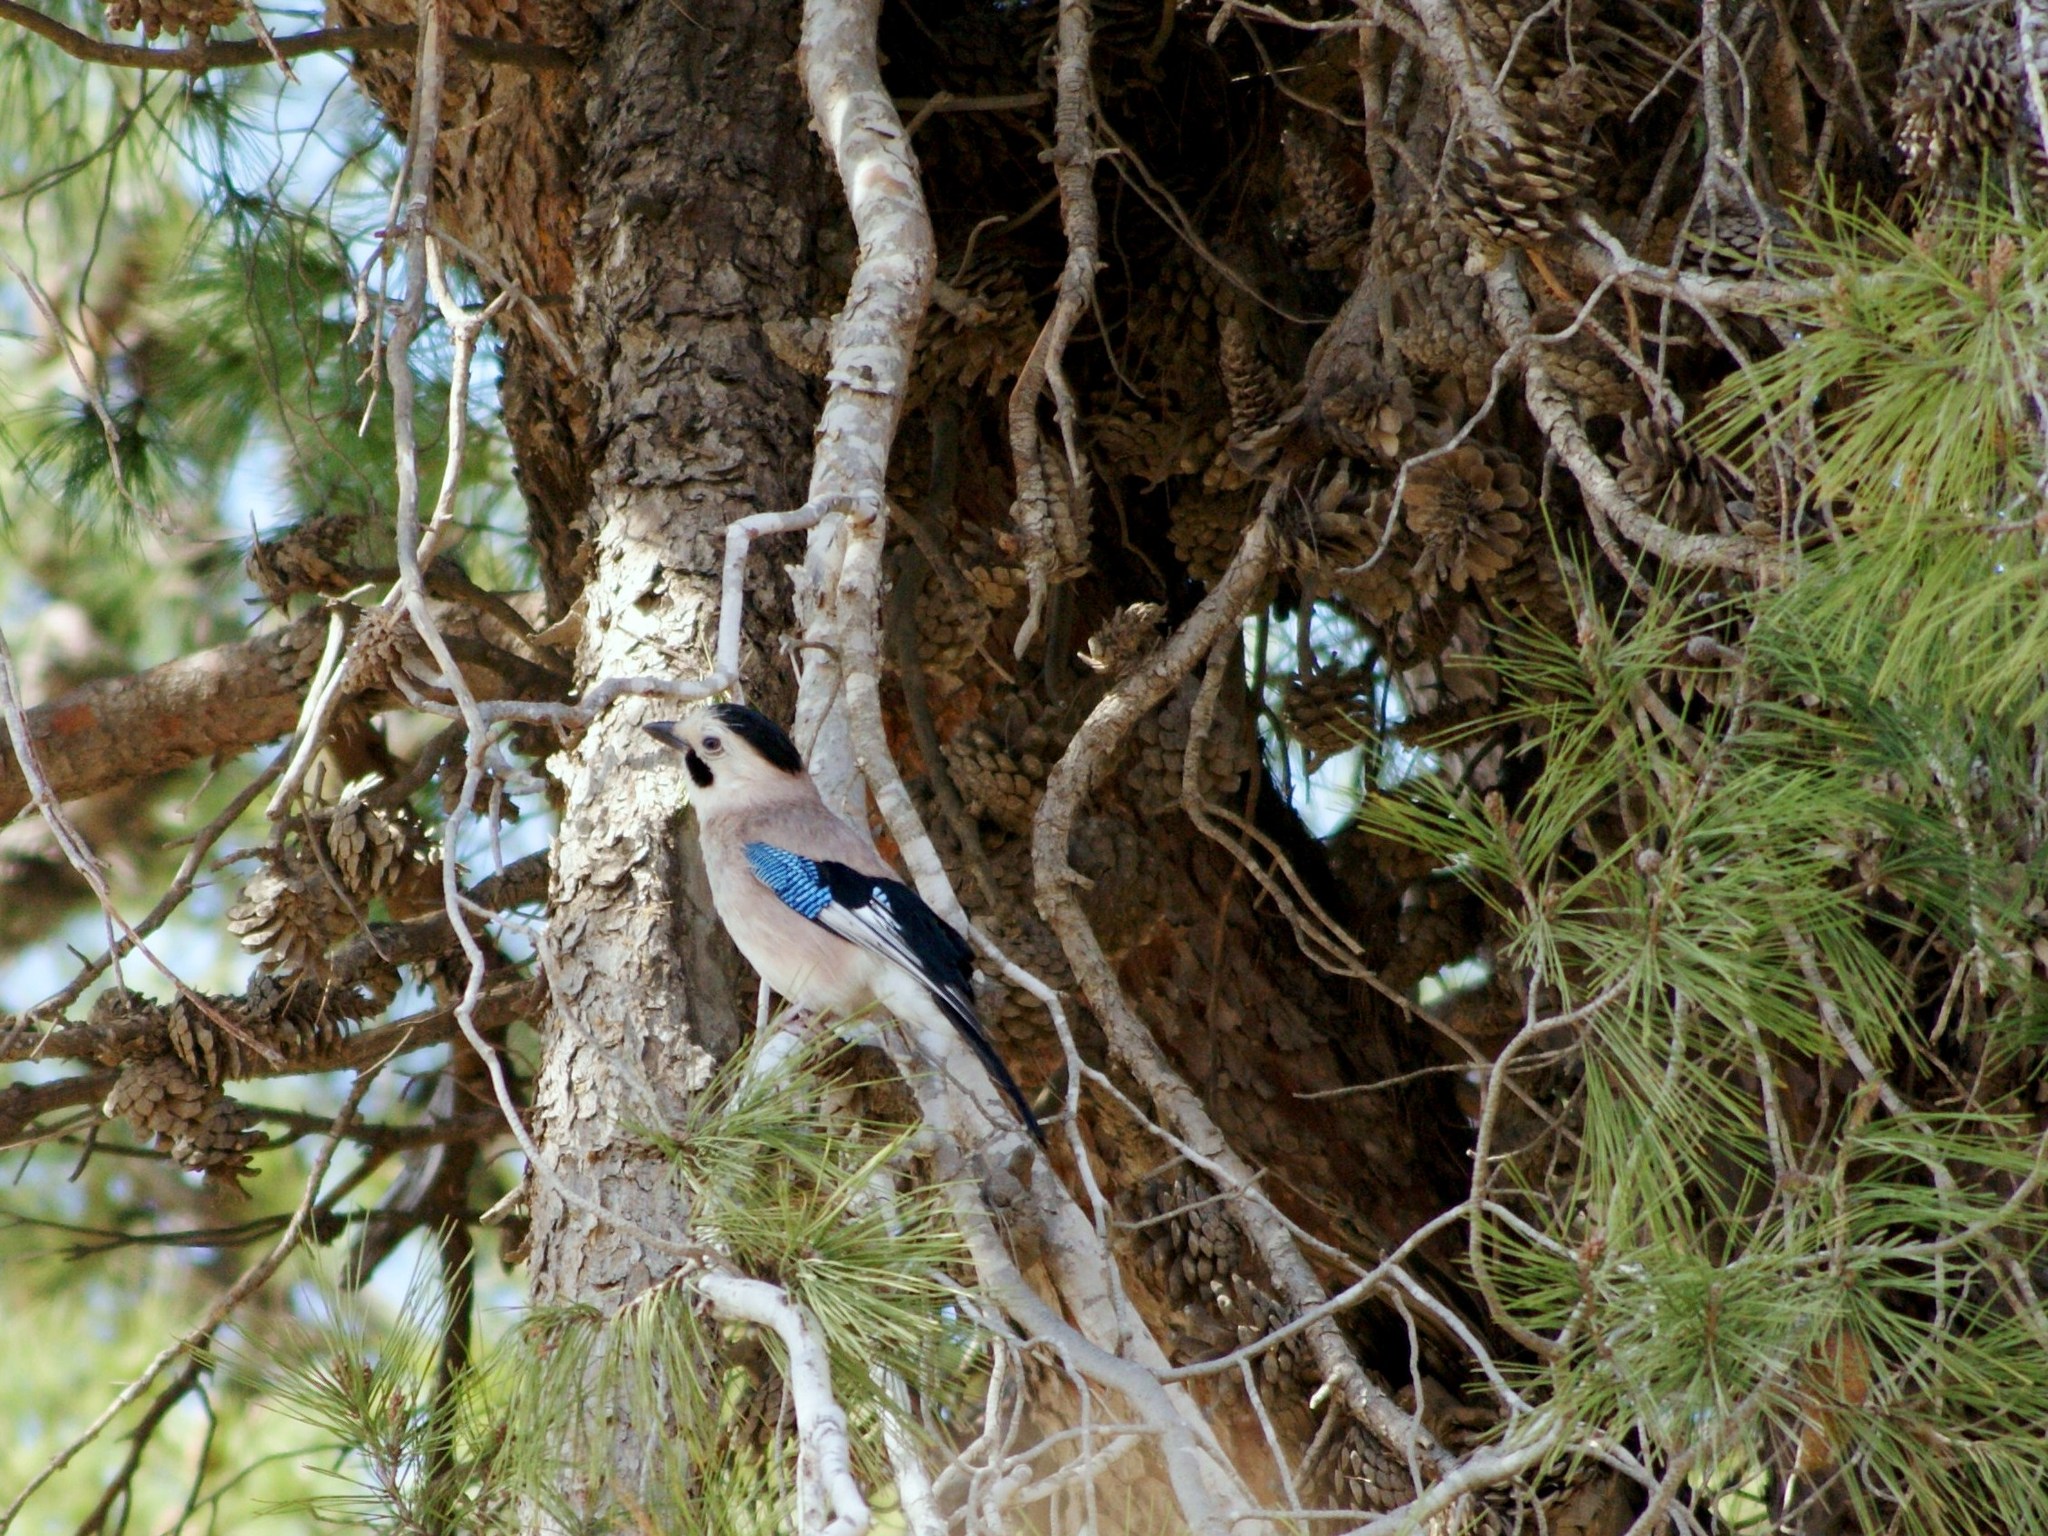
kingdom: Animalia
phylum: Chordata
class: Aves
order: Passeriformes
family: Corvidae
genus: Garrulus
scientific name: Garrulus glandarius
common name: Eurasian jay
